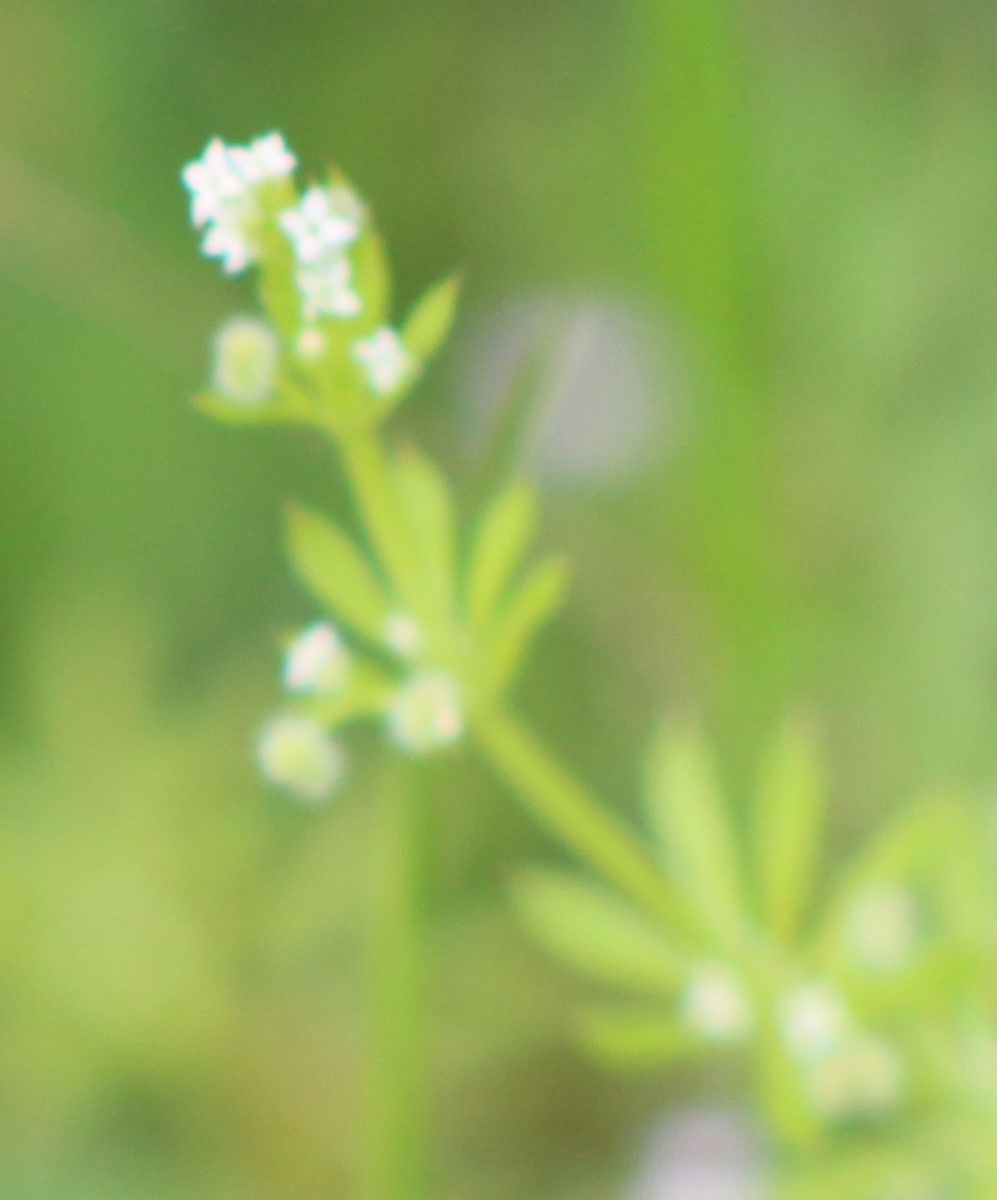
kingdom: Plantae
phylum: Tracheophyta
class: Magnoliopsida
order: Gentianales
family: Rubiaceae
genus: Galium
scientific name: Galium aparine
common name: Cleavers
